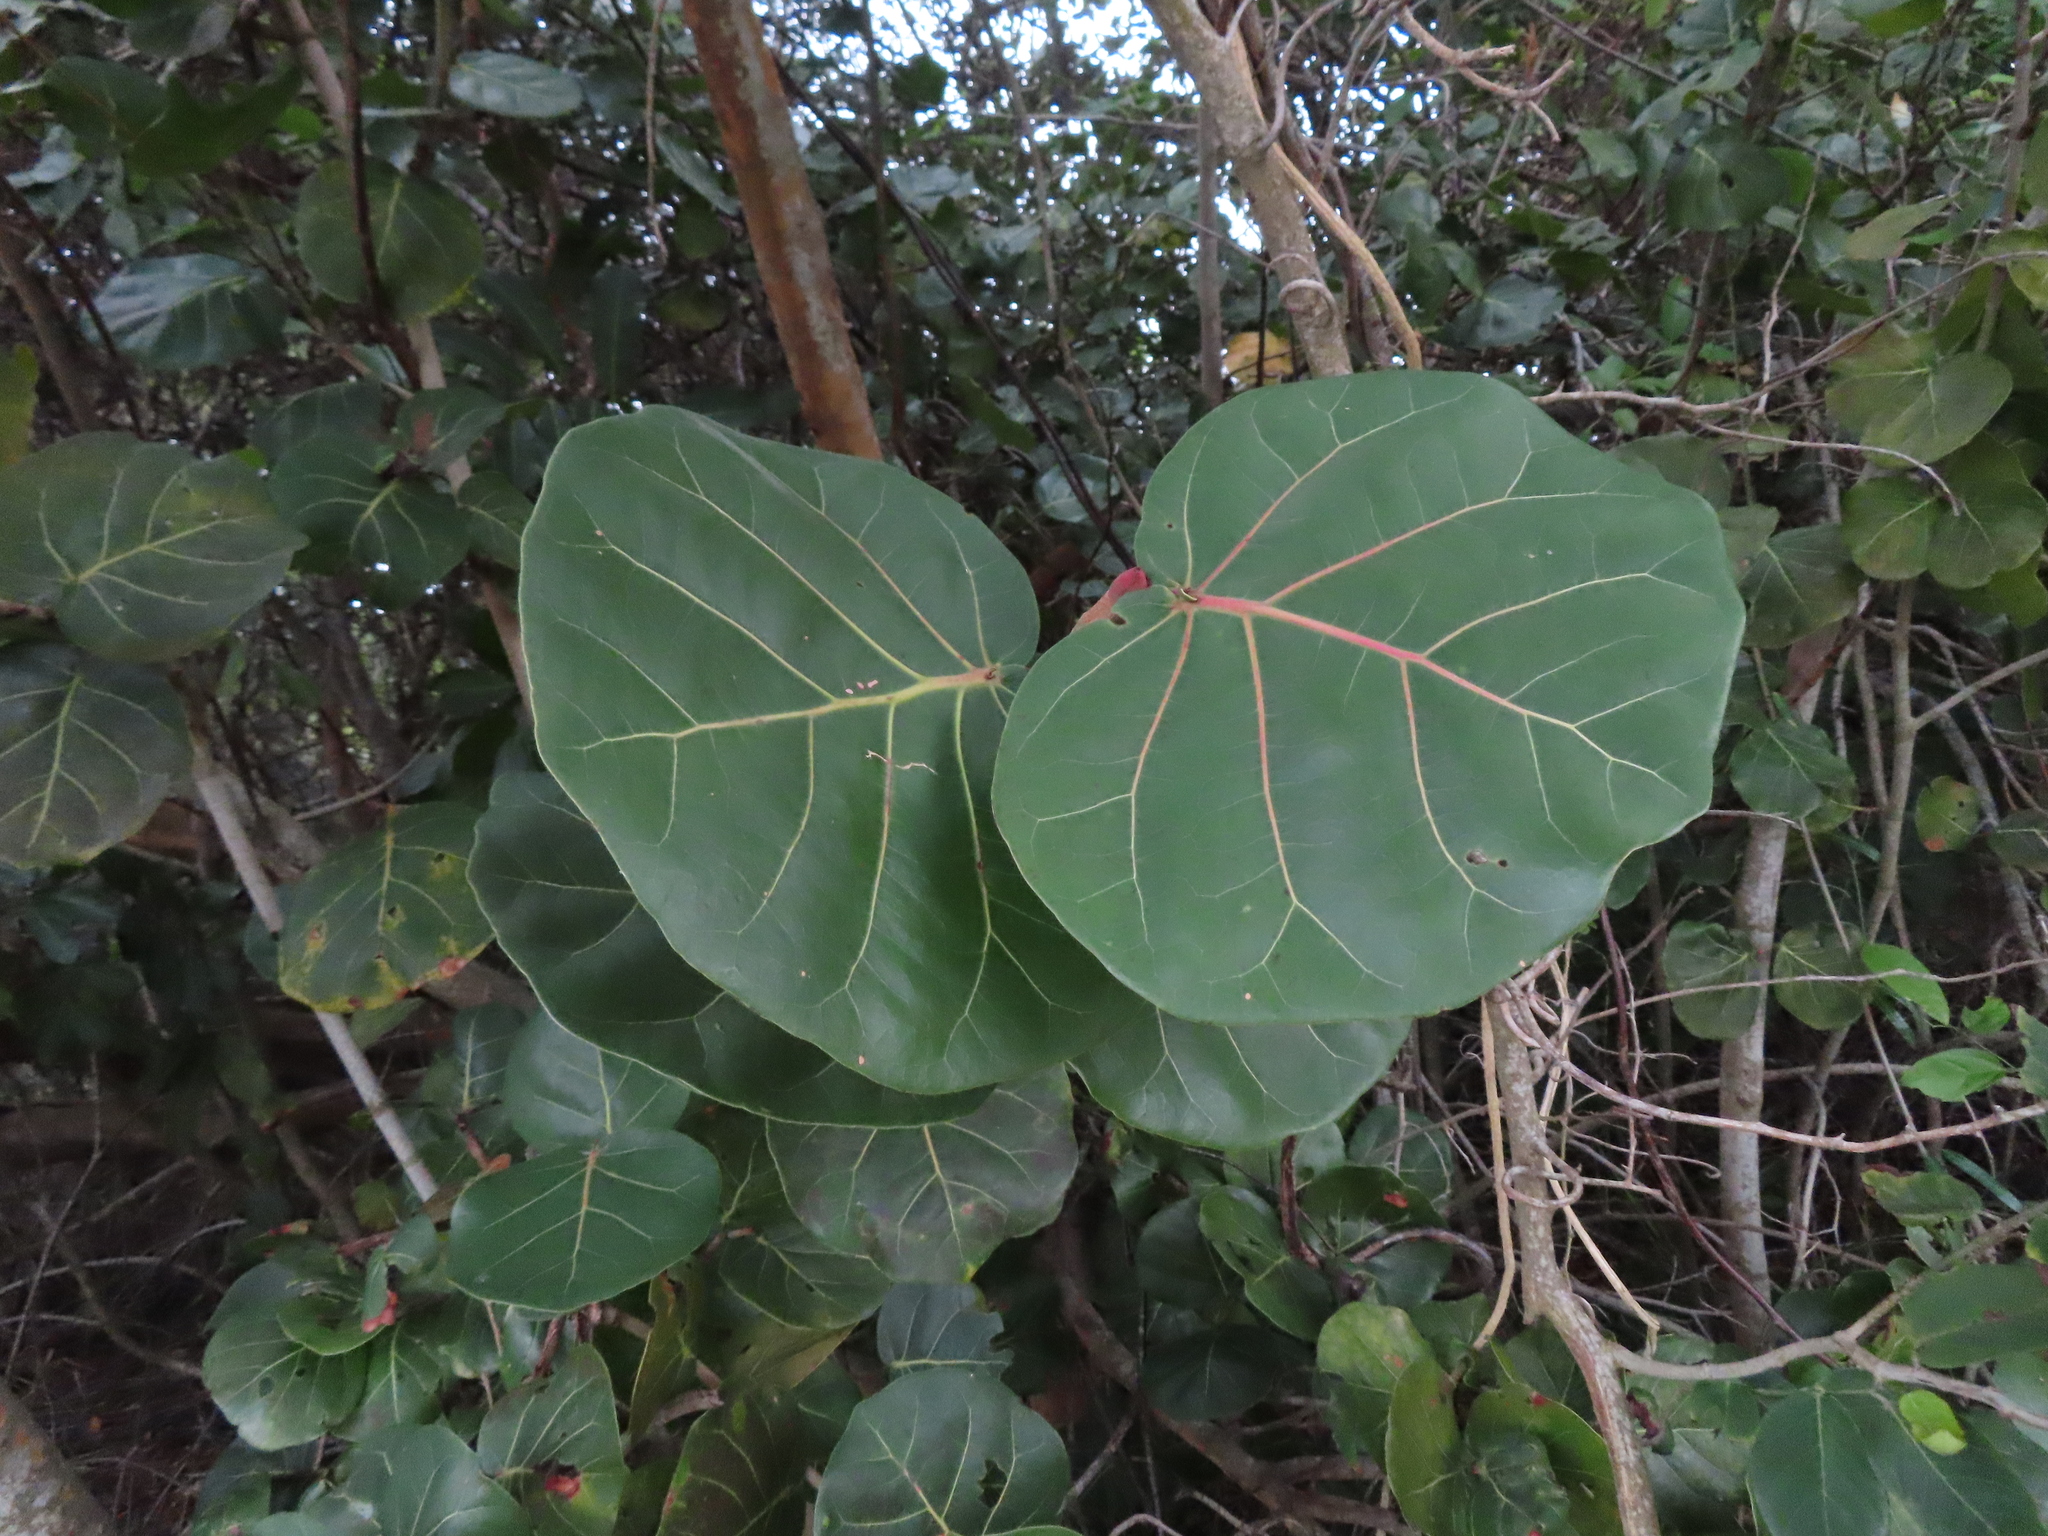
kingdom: Plantae
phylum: Tracheophyta
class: Magnoliopsida
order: Caryophyllales
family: Polygonaceae
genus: Coccoloba
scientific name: Coccoloba uvifera
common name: Seagrape
